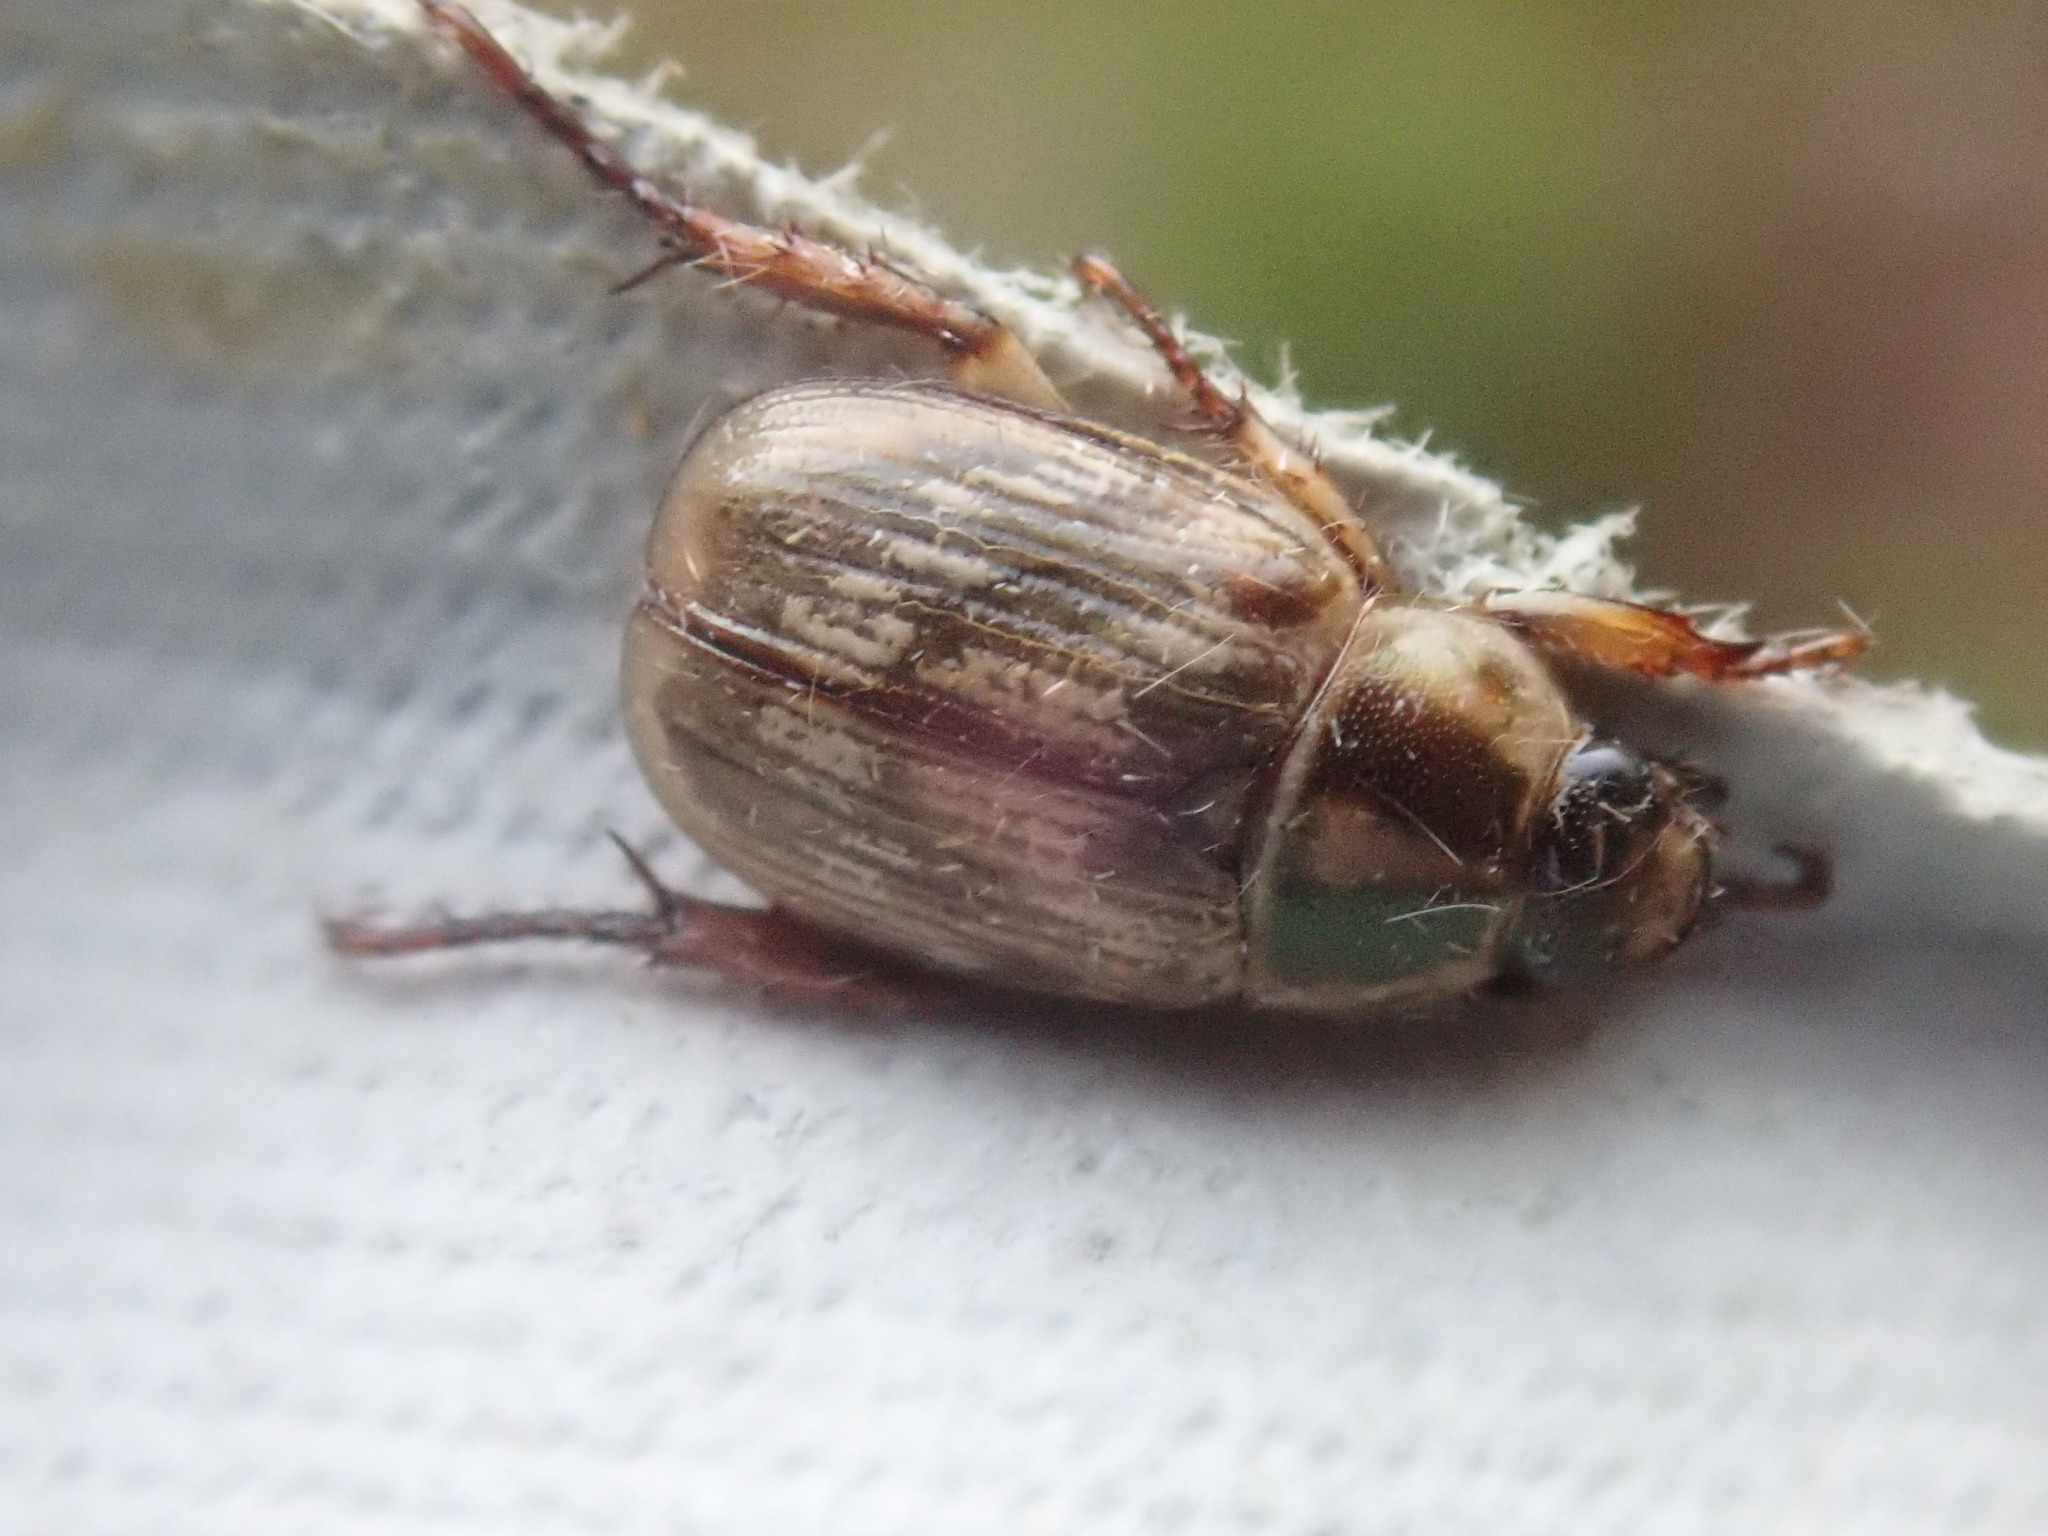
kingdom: Animalia
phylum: Arthropoda
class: Insecta
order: Coleoptera
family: Scarabaeidae
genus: Exomala
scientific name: Exomala orientalis
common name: Oriental beetle
